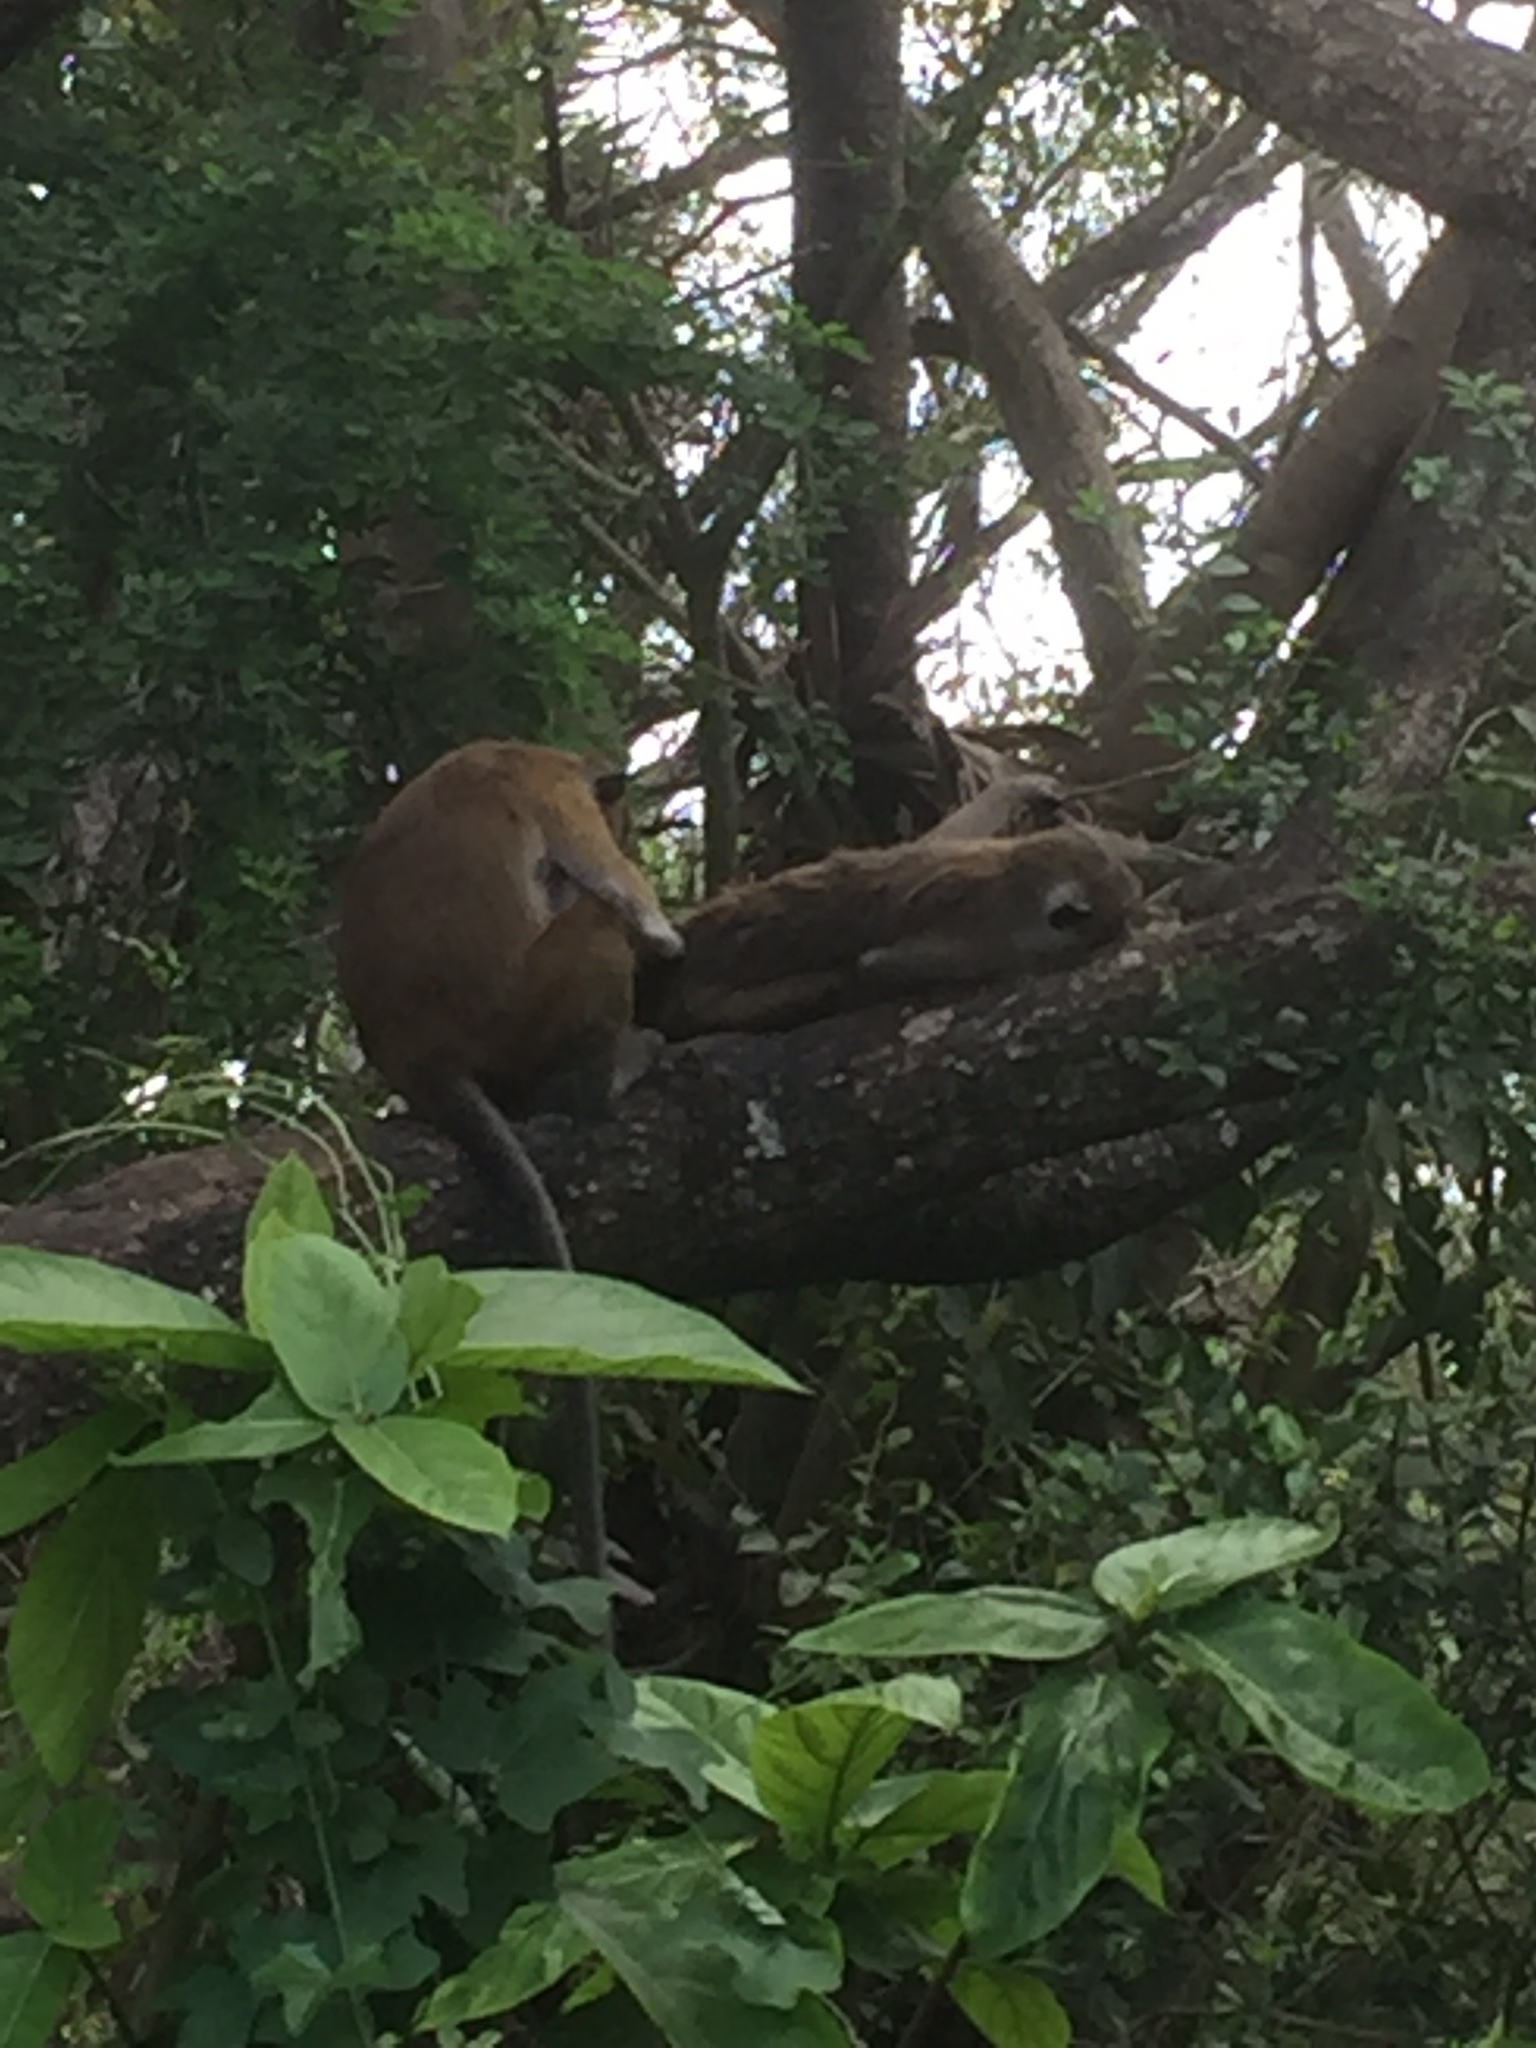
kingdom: Animalia
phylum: Chordata
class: Mammalia
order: Primates
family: Cercopithecidae
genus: Macaca
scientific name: Macaca sinica
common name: Toque macaque
